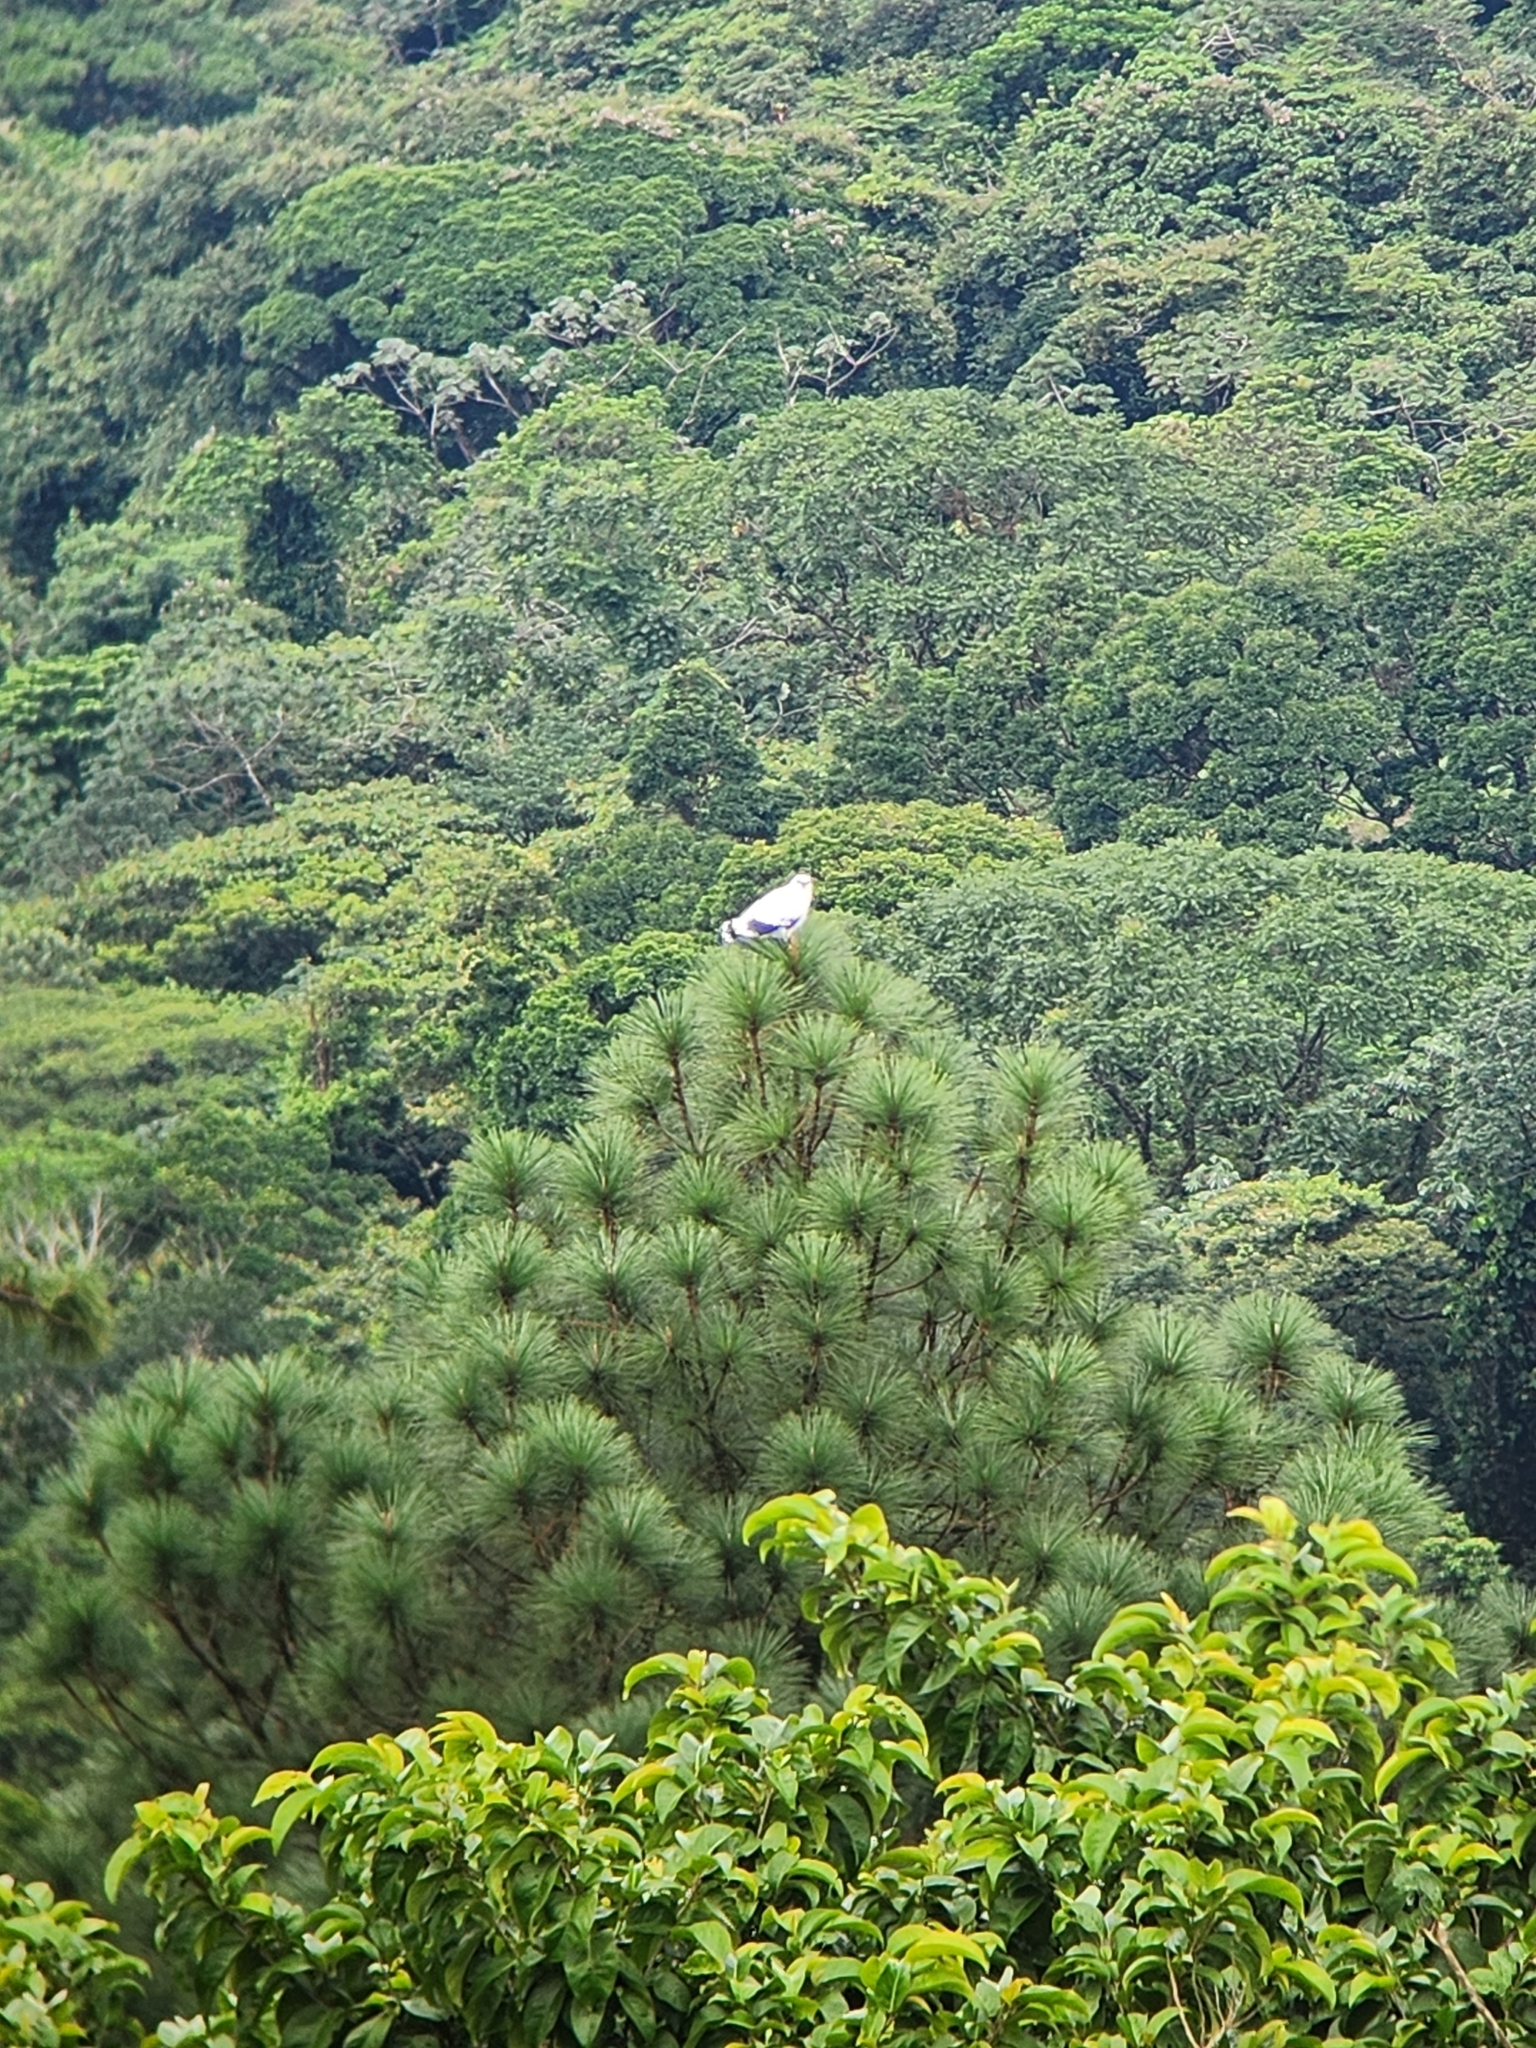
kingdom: Animalia
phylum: Chordata
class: Aves
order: Accipitriformes
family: Accipitridae
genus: Leucopternis
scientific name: Leucopternis albicollis
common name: White hawk
